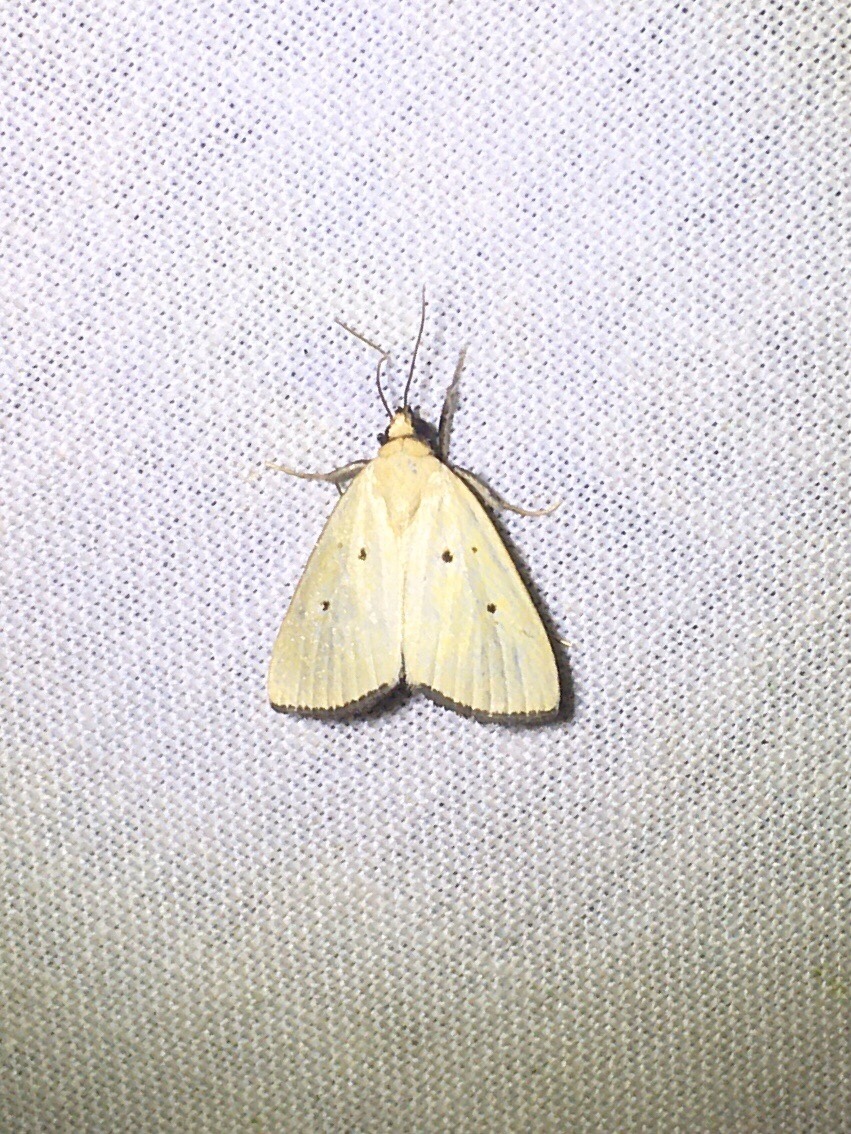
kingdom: Animalia
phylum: Arthropoda
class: Insecta
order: Lepidoptera
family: Noctuidae
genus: Marimatha
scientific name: Marimatha nigrofimbria
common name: Black-bordered lemon moth
